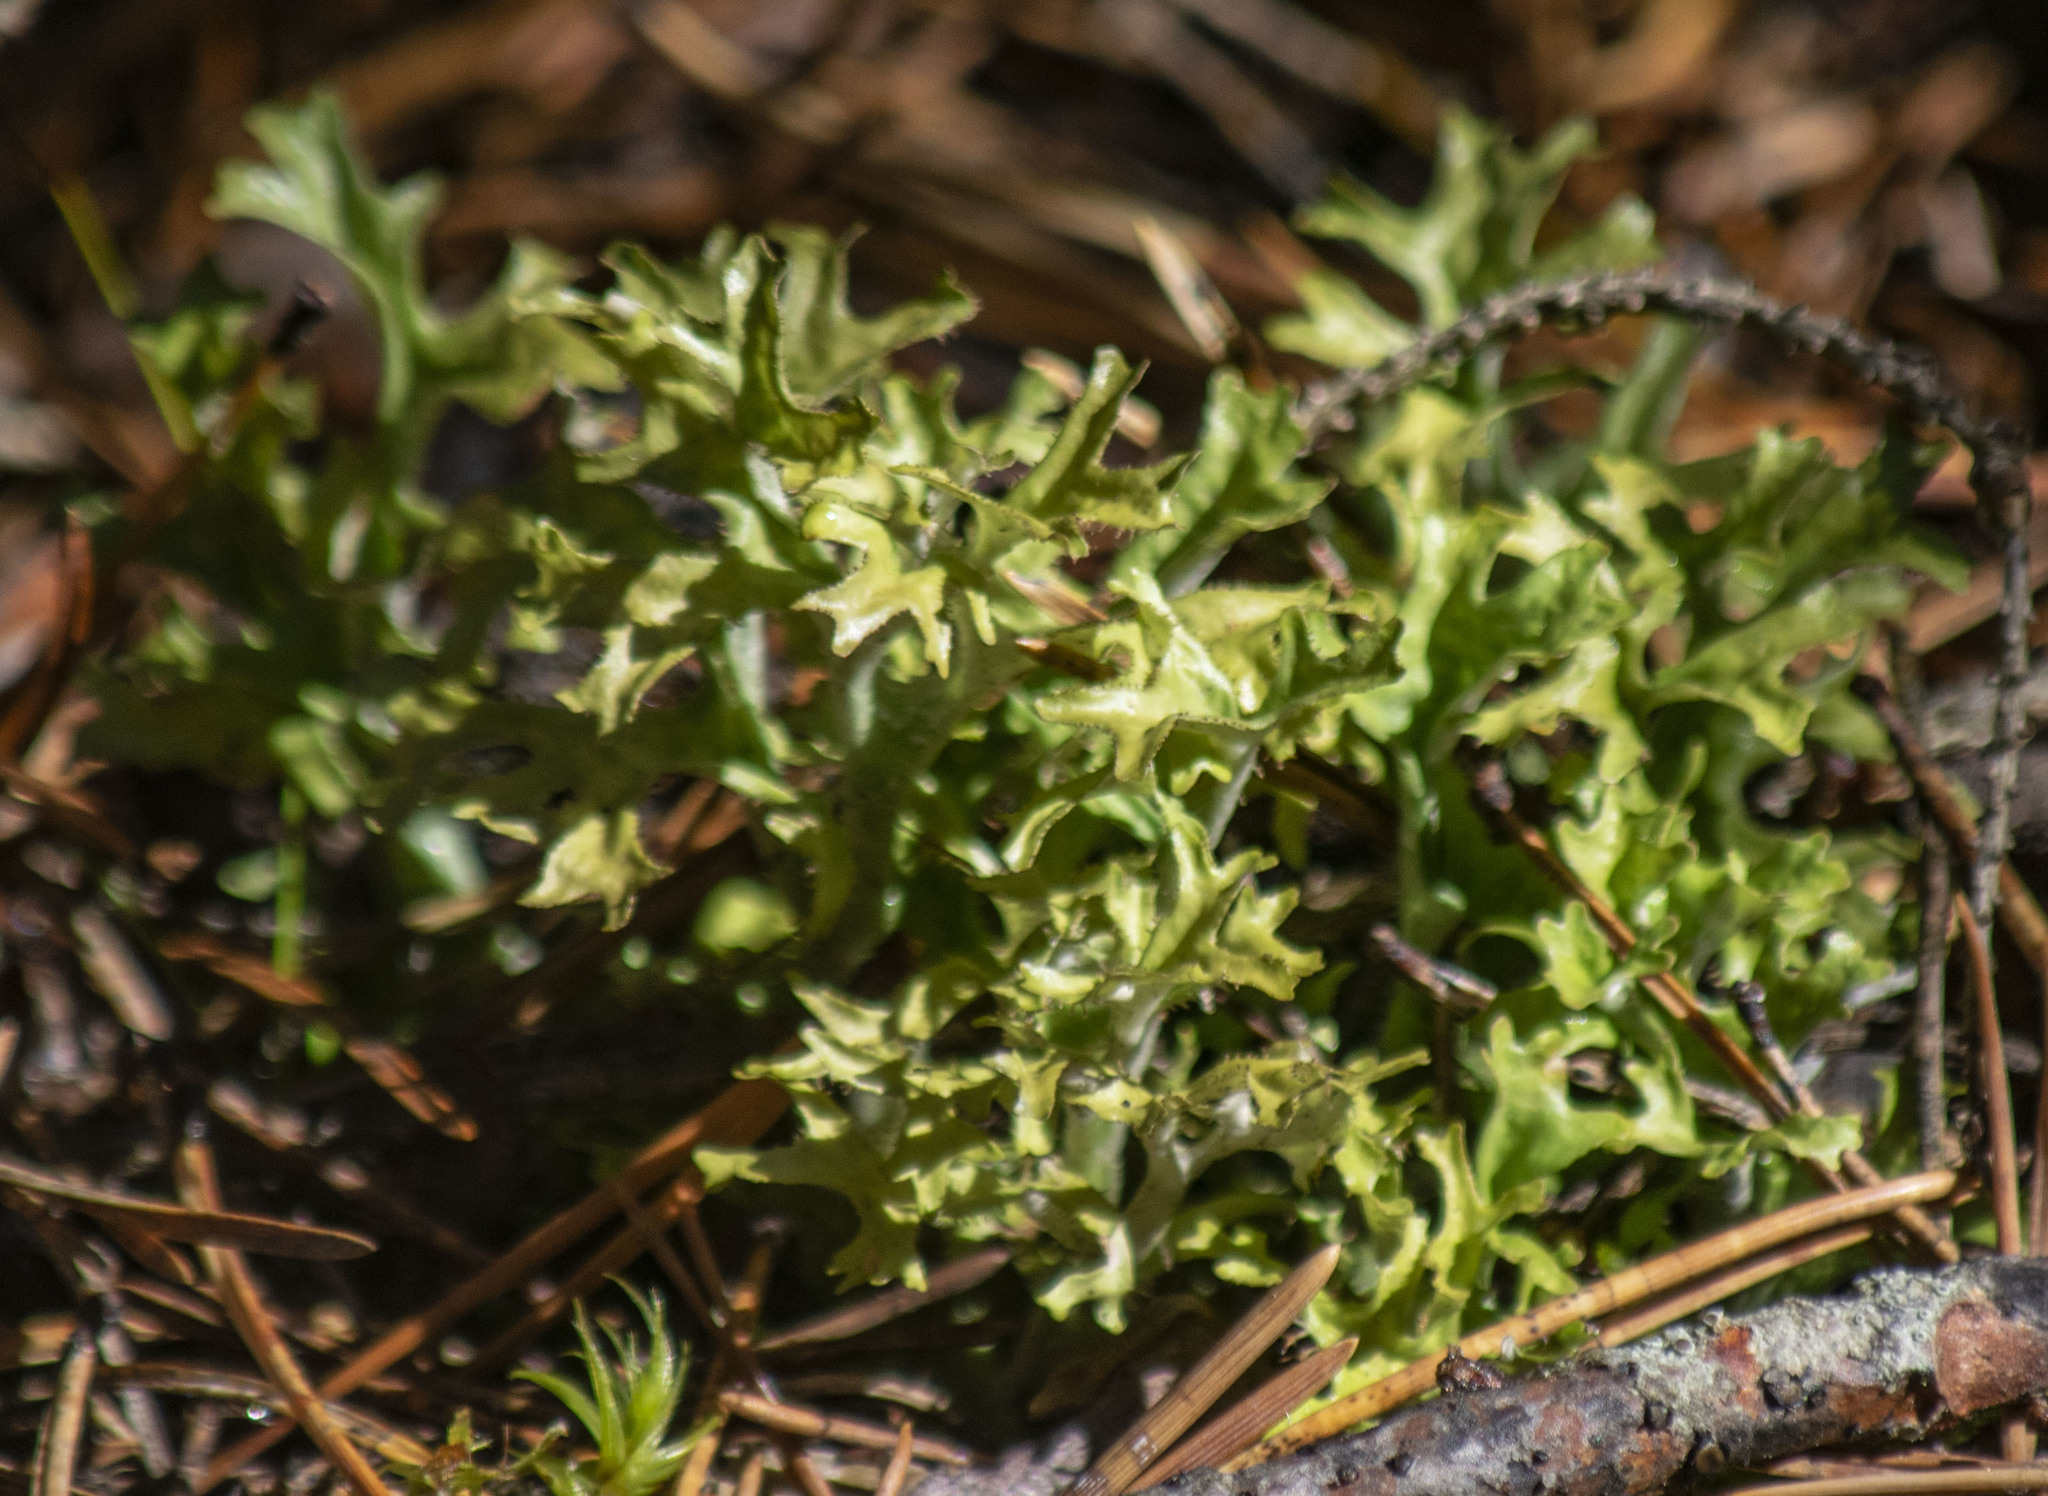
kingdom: Fungi
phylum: Ascomycota
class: Lecanoromycetes
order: Lecanorales
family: Parmeliaceae
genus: Cetraria
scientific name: Cetraria islandica
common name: Iceland lichen
